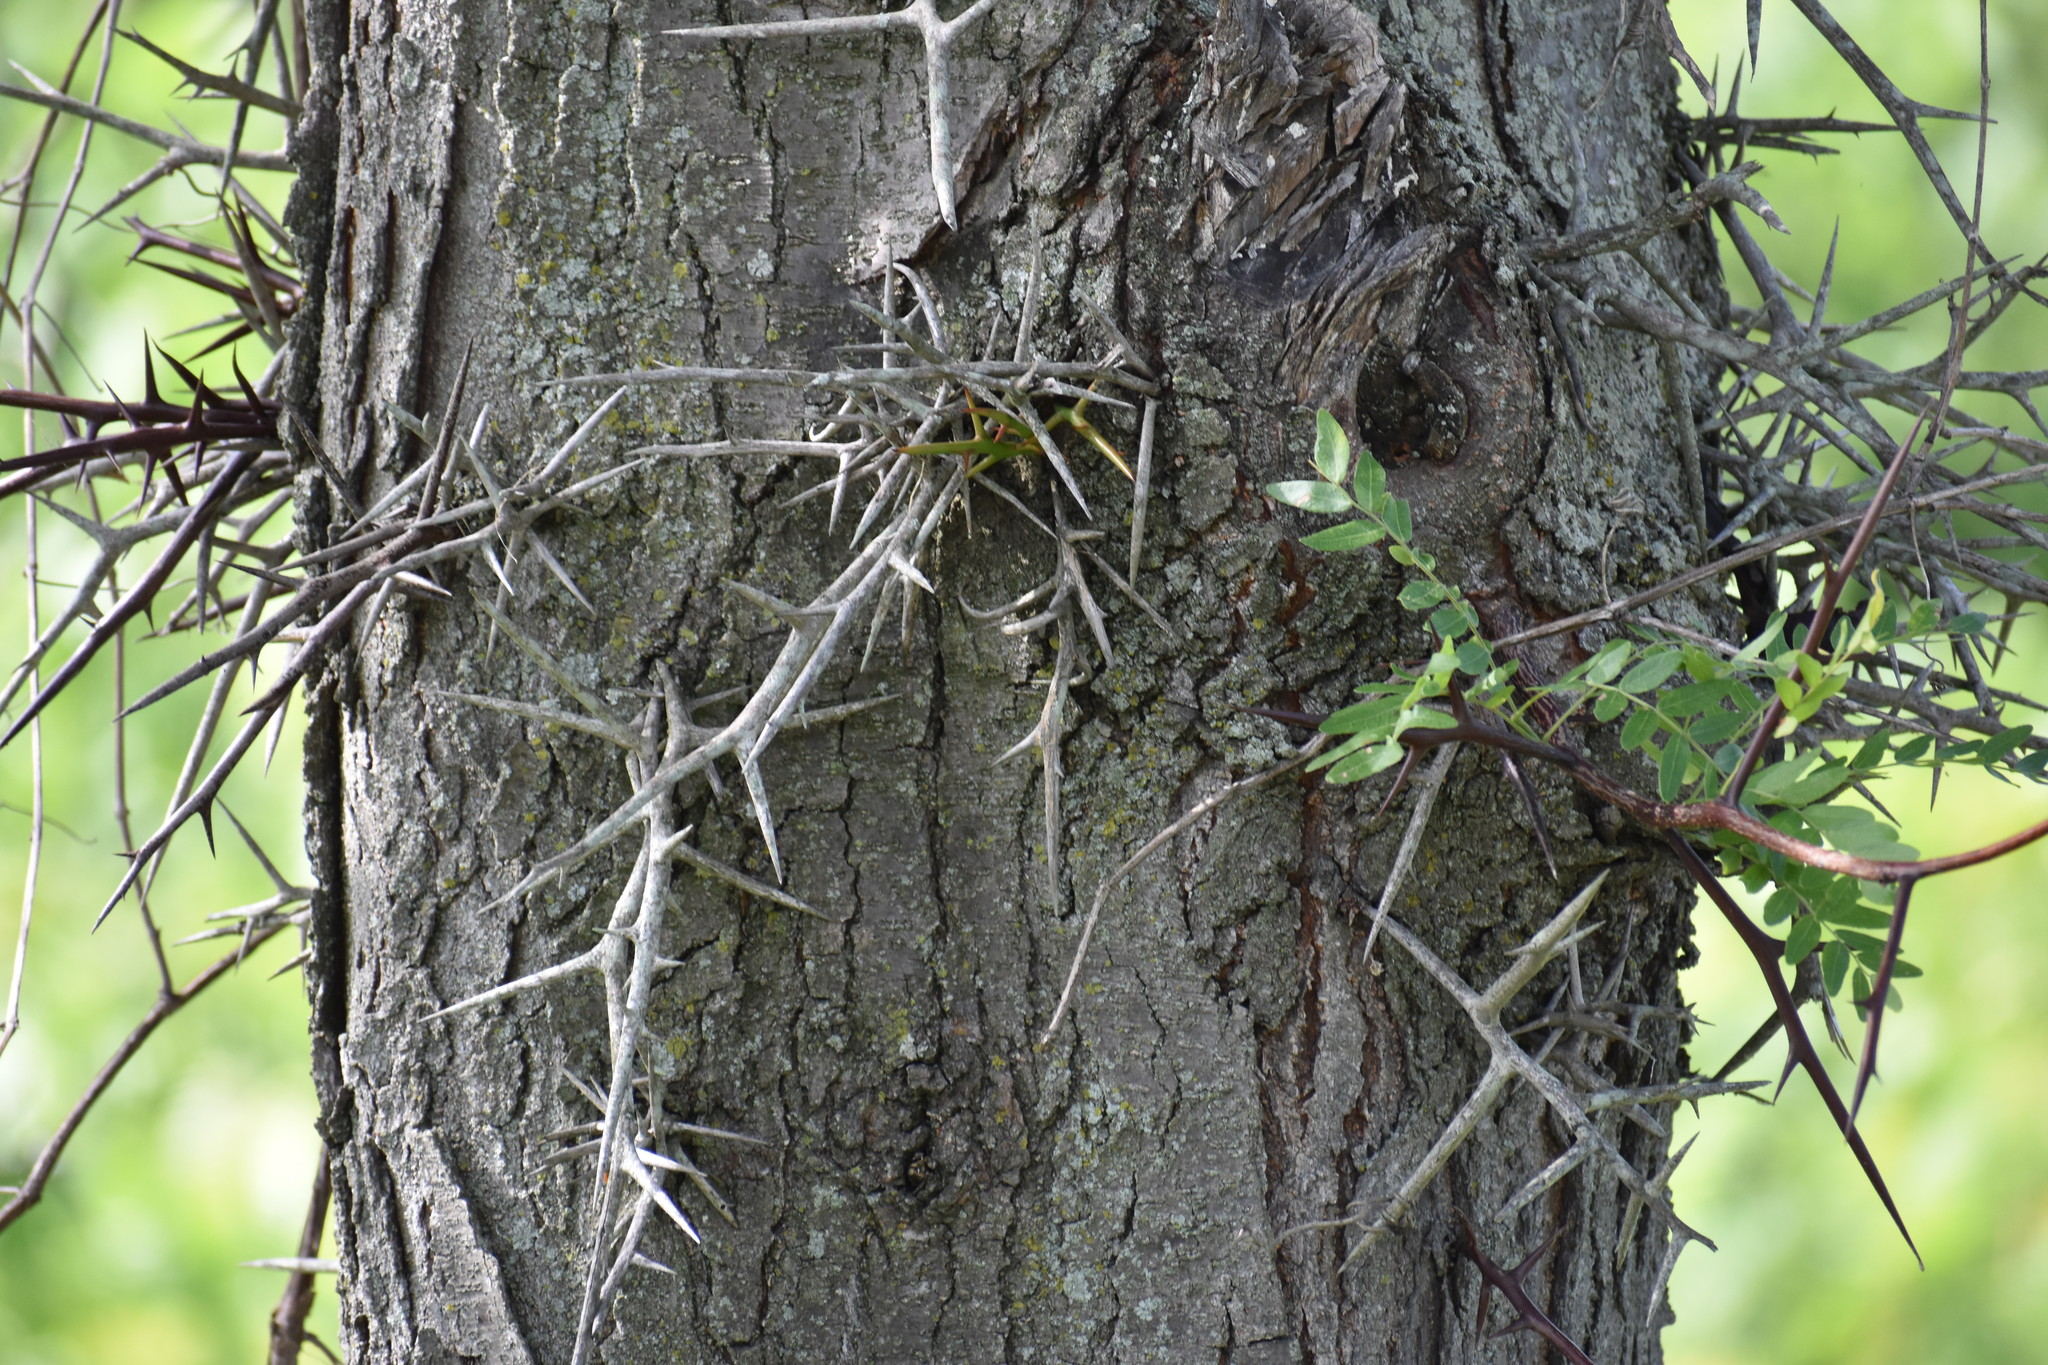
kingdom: Plantae
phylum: Tracheophyta
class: Magnoliopsida
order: Fabales
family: Fabaceae
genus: Gleditsia
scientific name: Gleditsia triacanthos
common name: Common honeylocust
